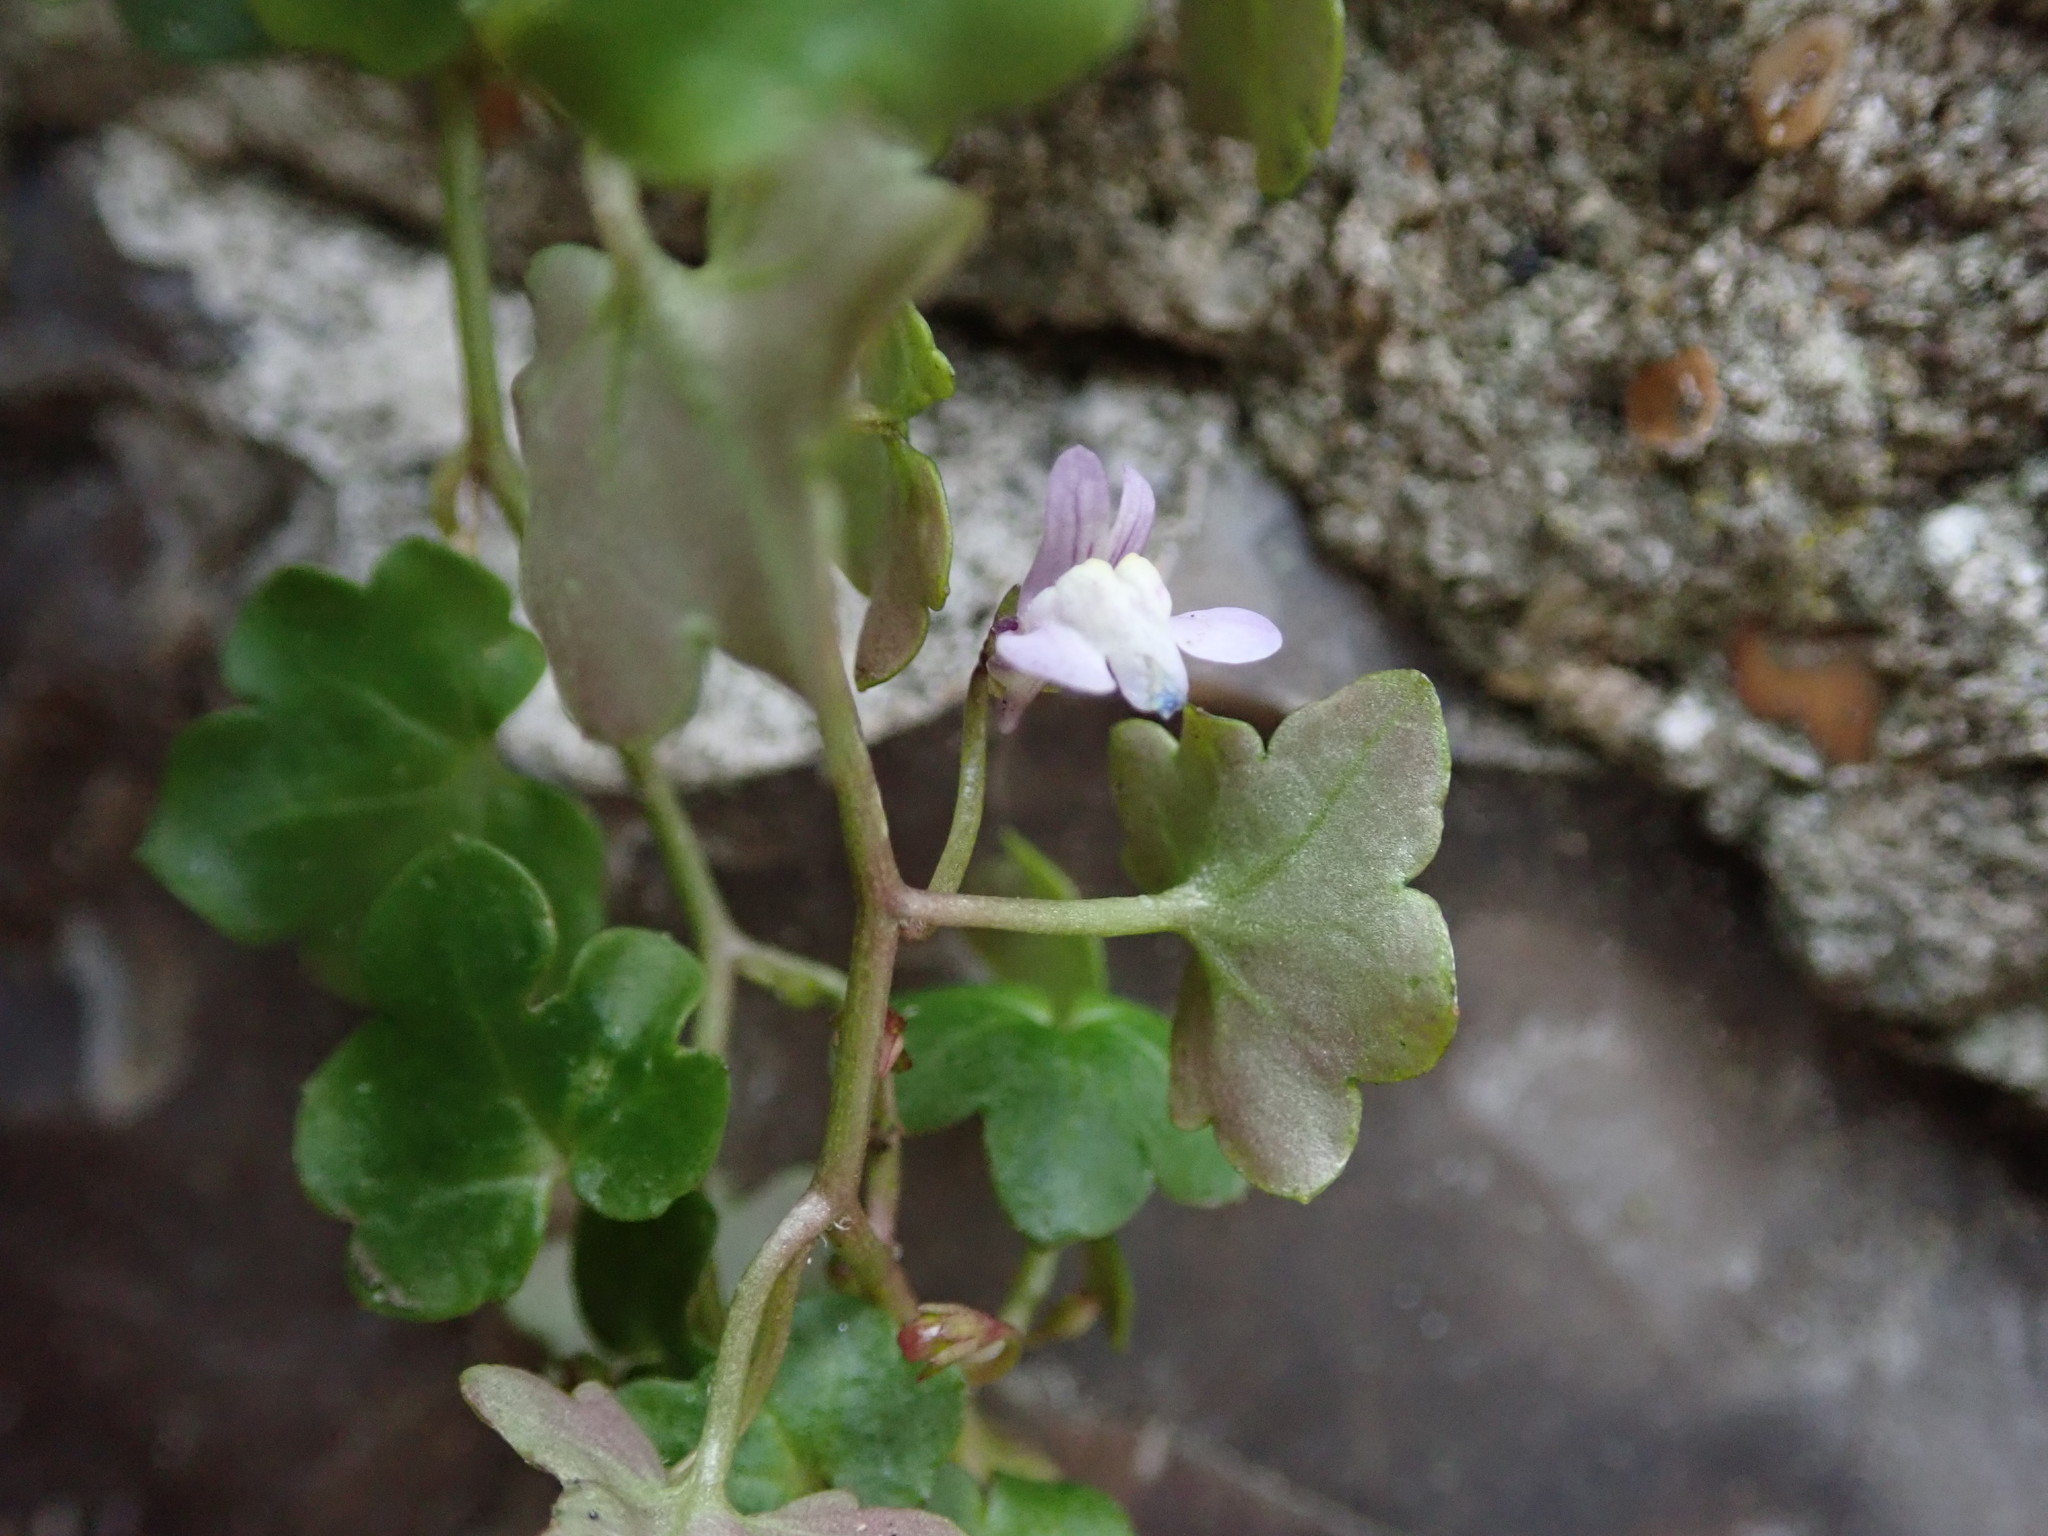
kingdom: Plantae
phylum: Tracheophyta
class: Magnoliopsida
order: Lamiales
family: Plantaginaceae
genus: Cymbalaria
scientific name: Cymbalaria muralis
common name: Ivy-leaved toadflax
